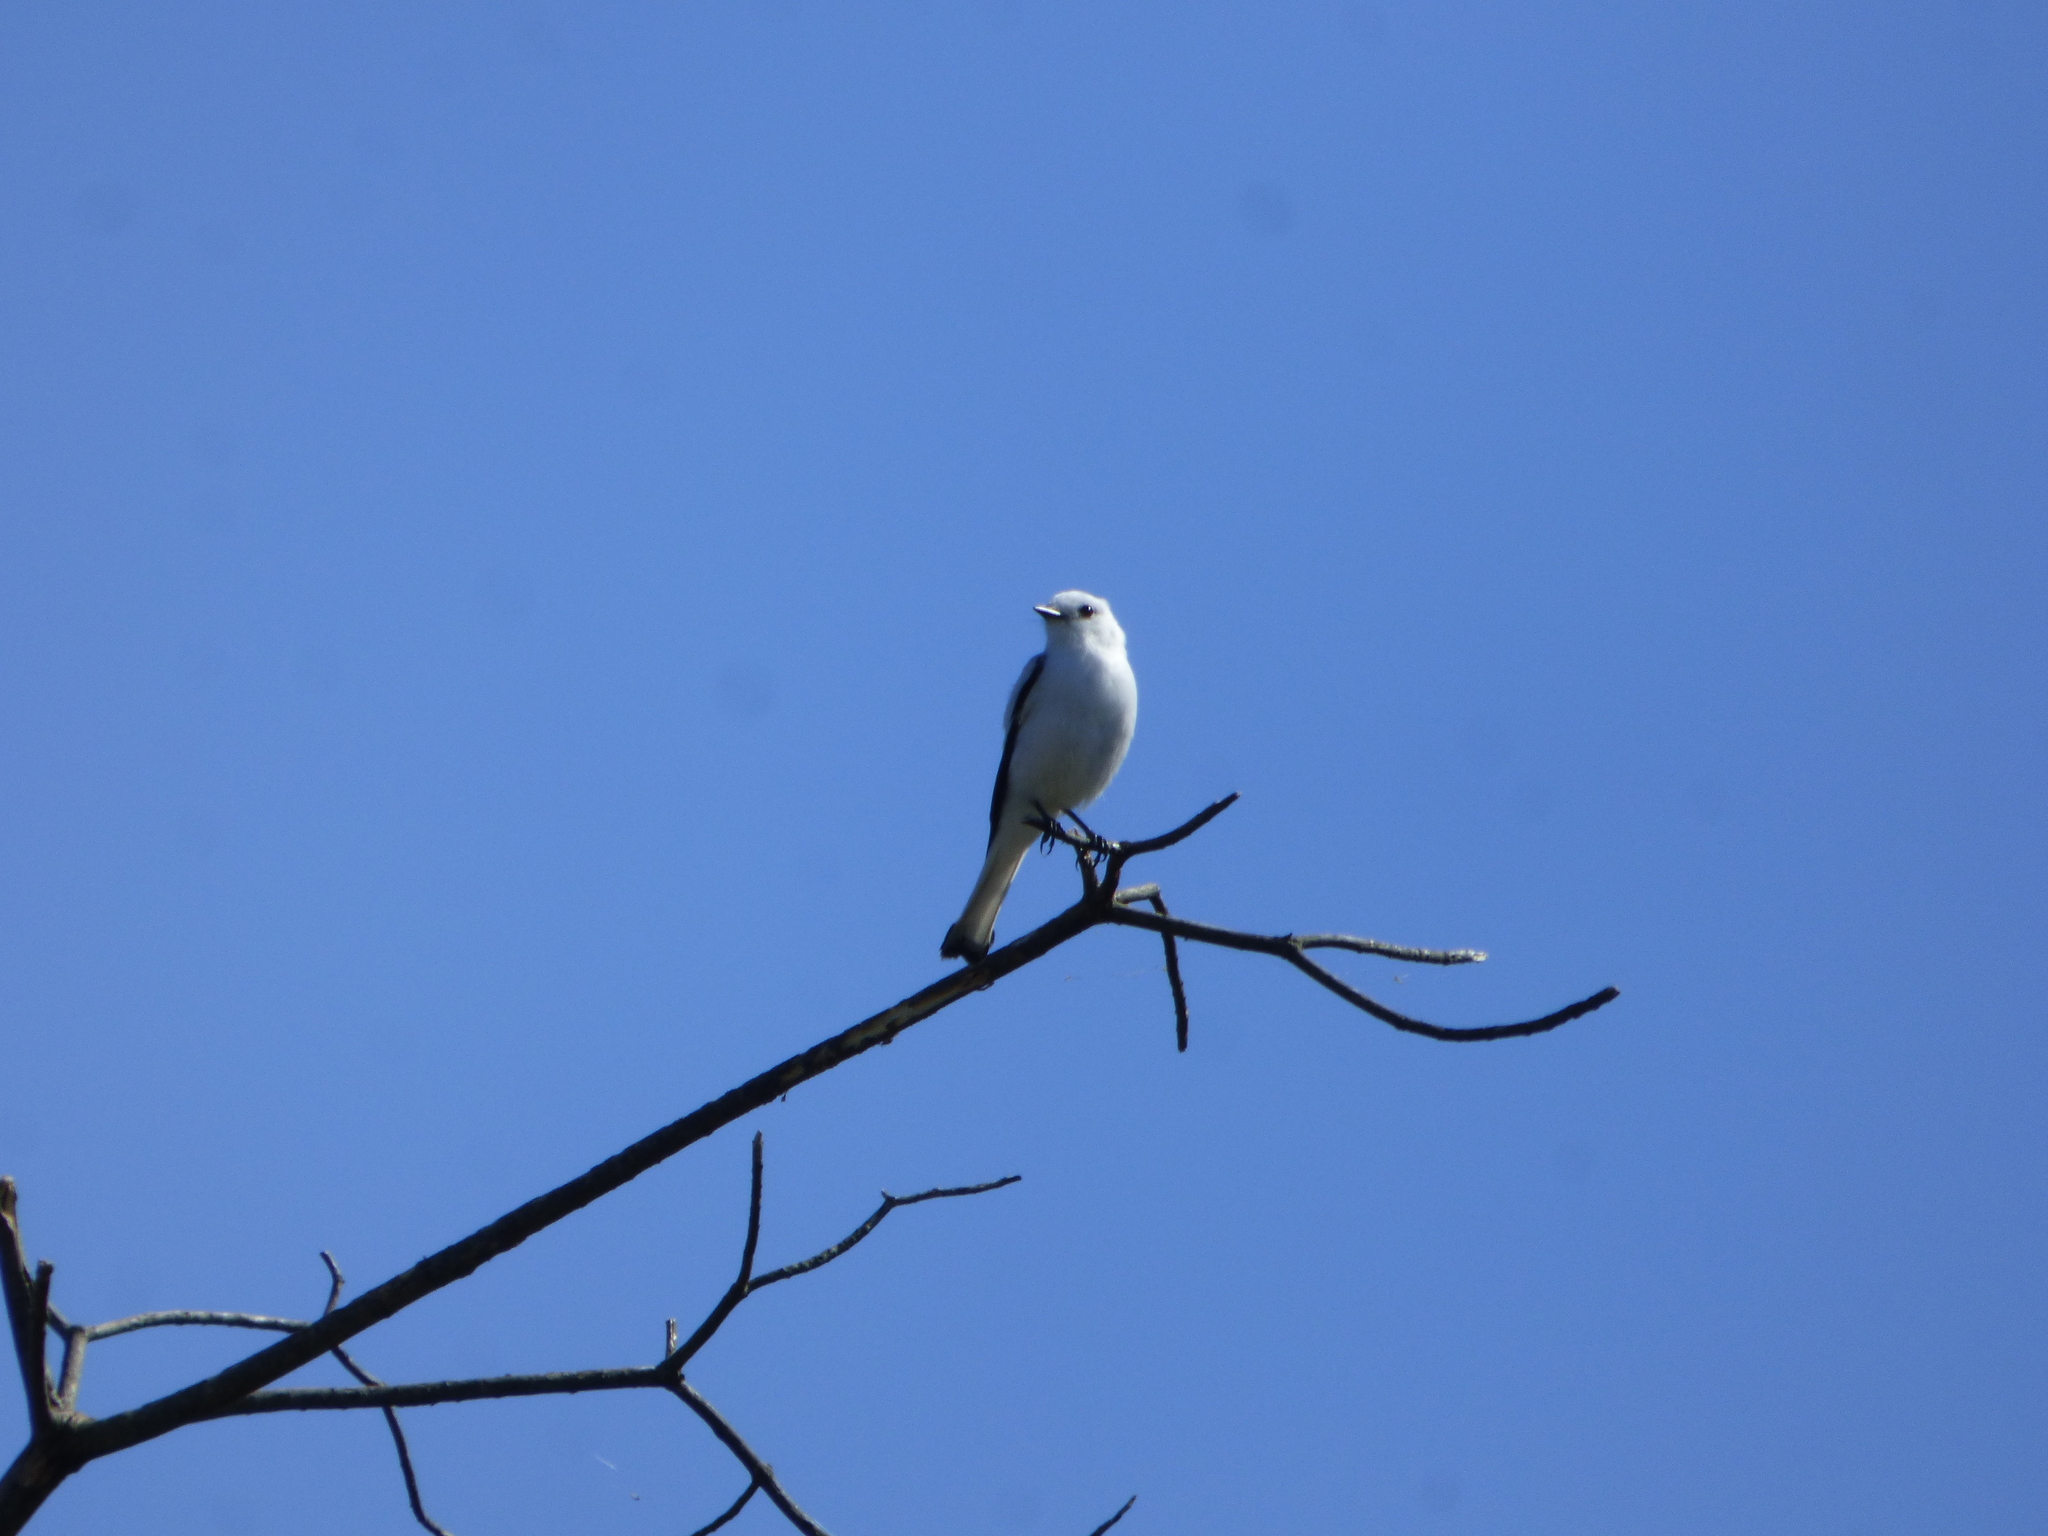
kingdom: Animalia
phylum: Chordata
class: Aves
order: Passeriformes
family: Tyrannidae
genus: Xolmis
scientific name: Xolmis irupero
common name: White monjita
